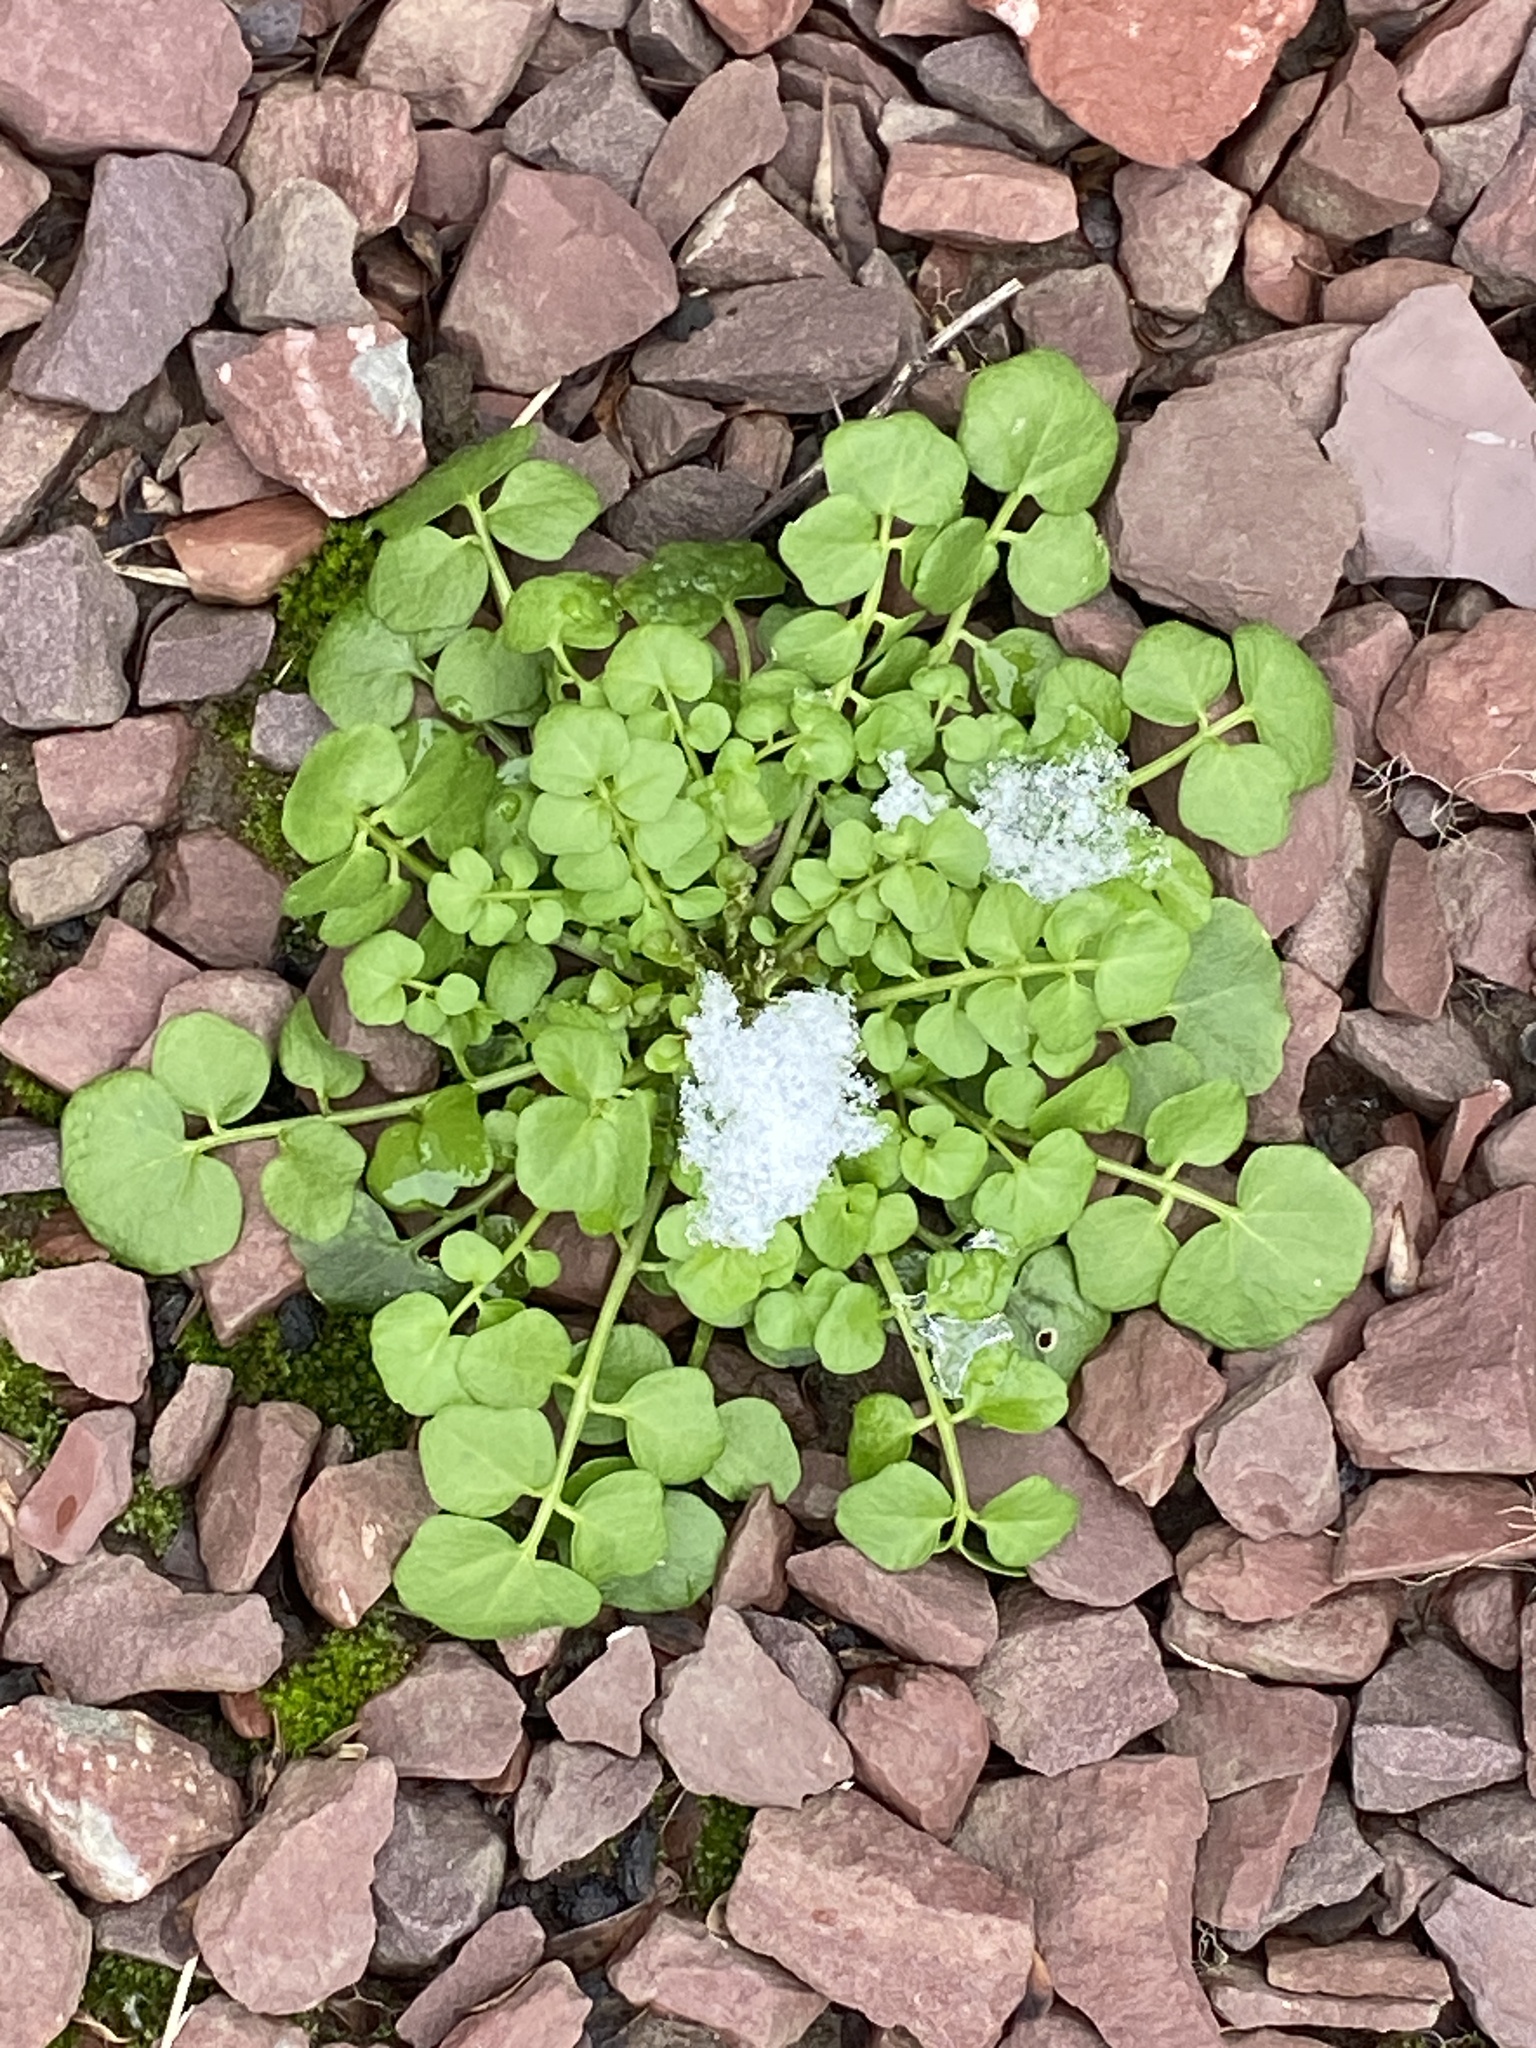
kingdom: Plantae
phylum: Tracheophyta
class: Magnoliopsida
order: Brassicales
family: Brassicaceae
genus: Cardamine
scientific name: Cardamine hirsuta
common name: Hairy bittercress
